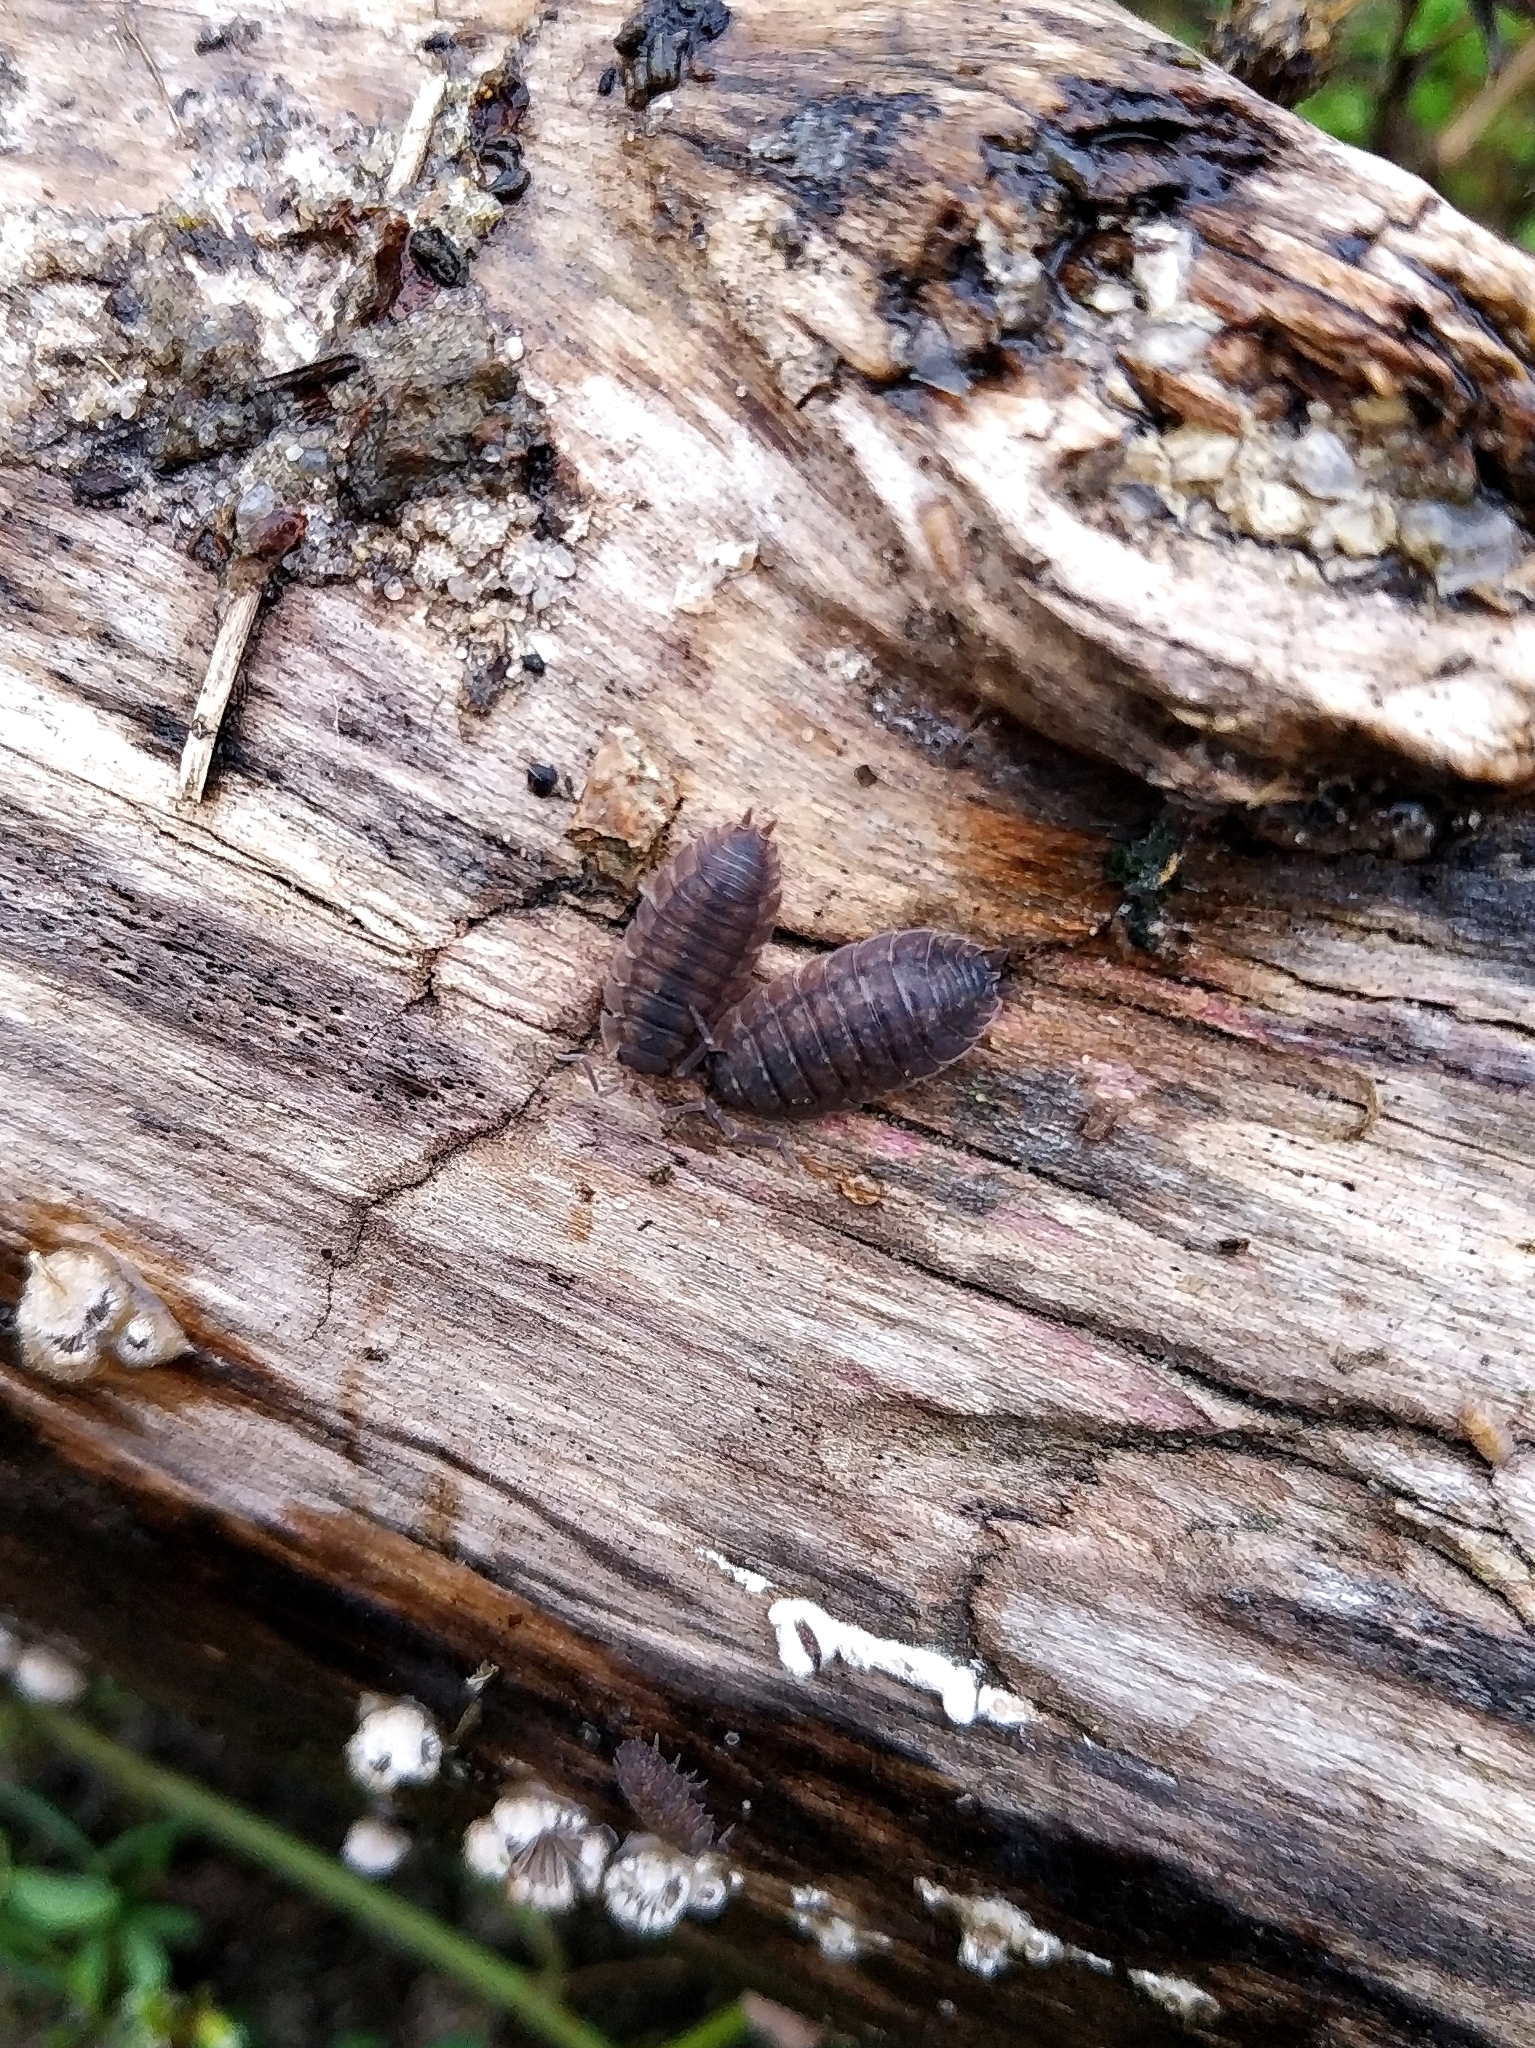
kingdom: Animalia
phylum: Arthropoda
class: Malacostraca
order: Isopoda
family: Porcellionidae
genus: Porcellio
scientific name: Porcellio scaber
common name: Common rough woodlouse
